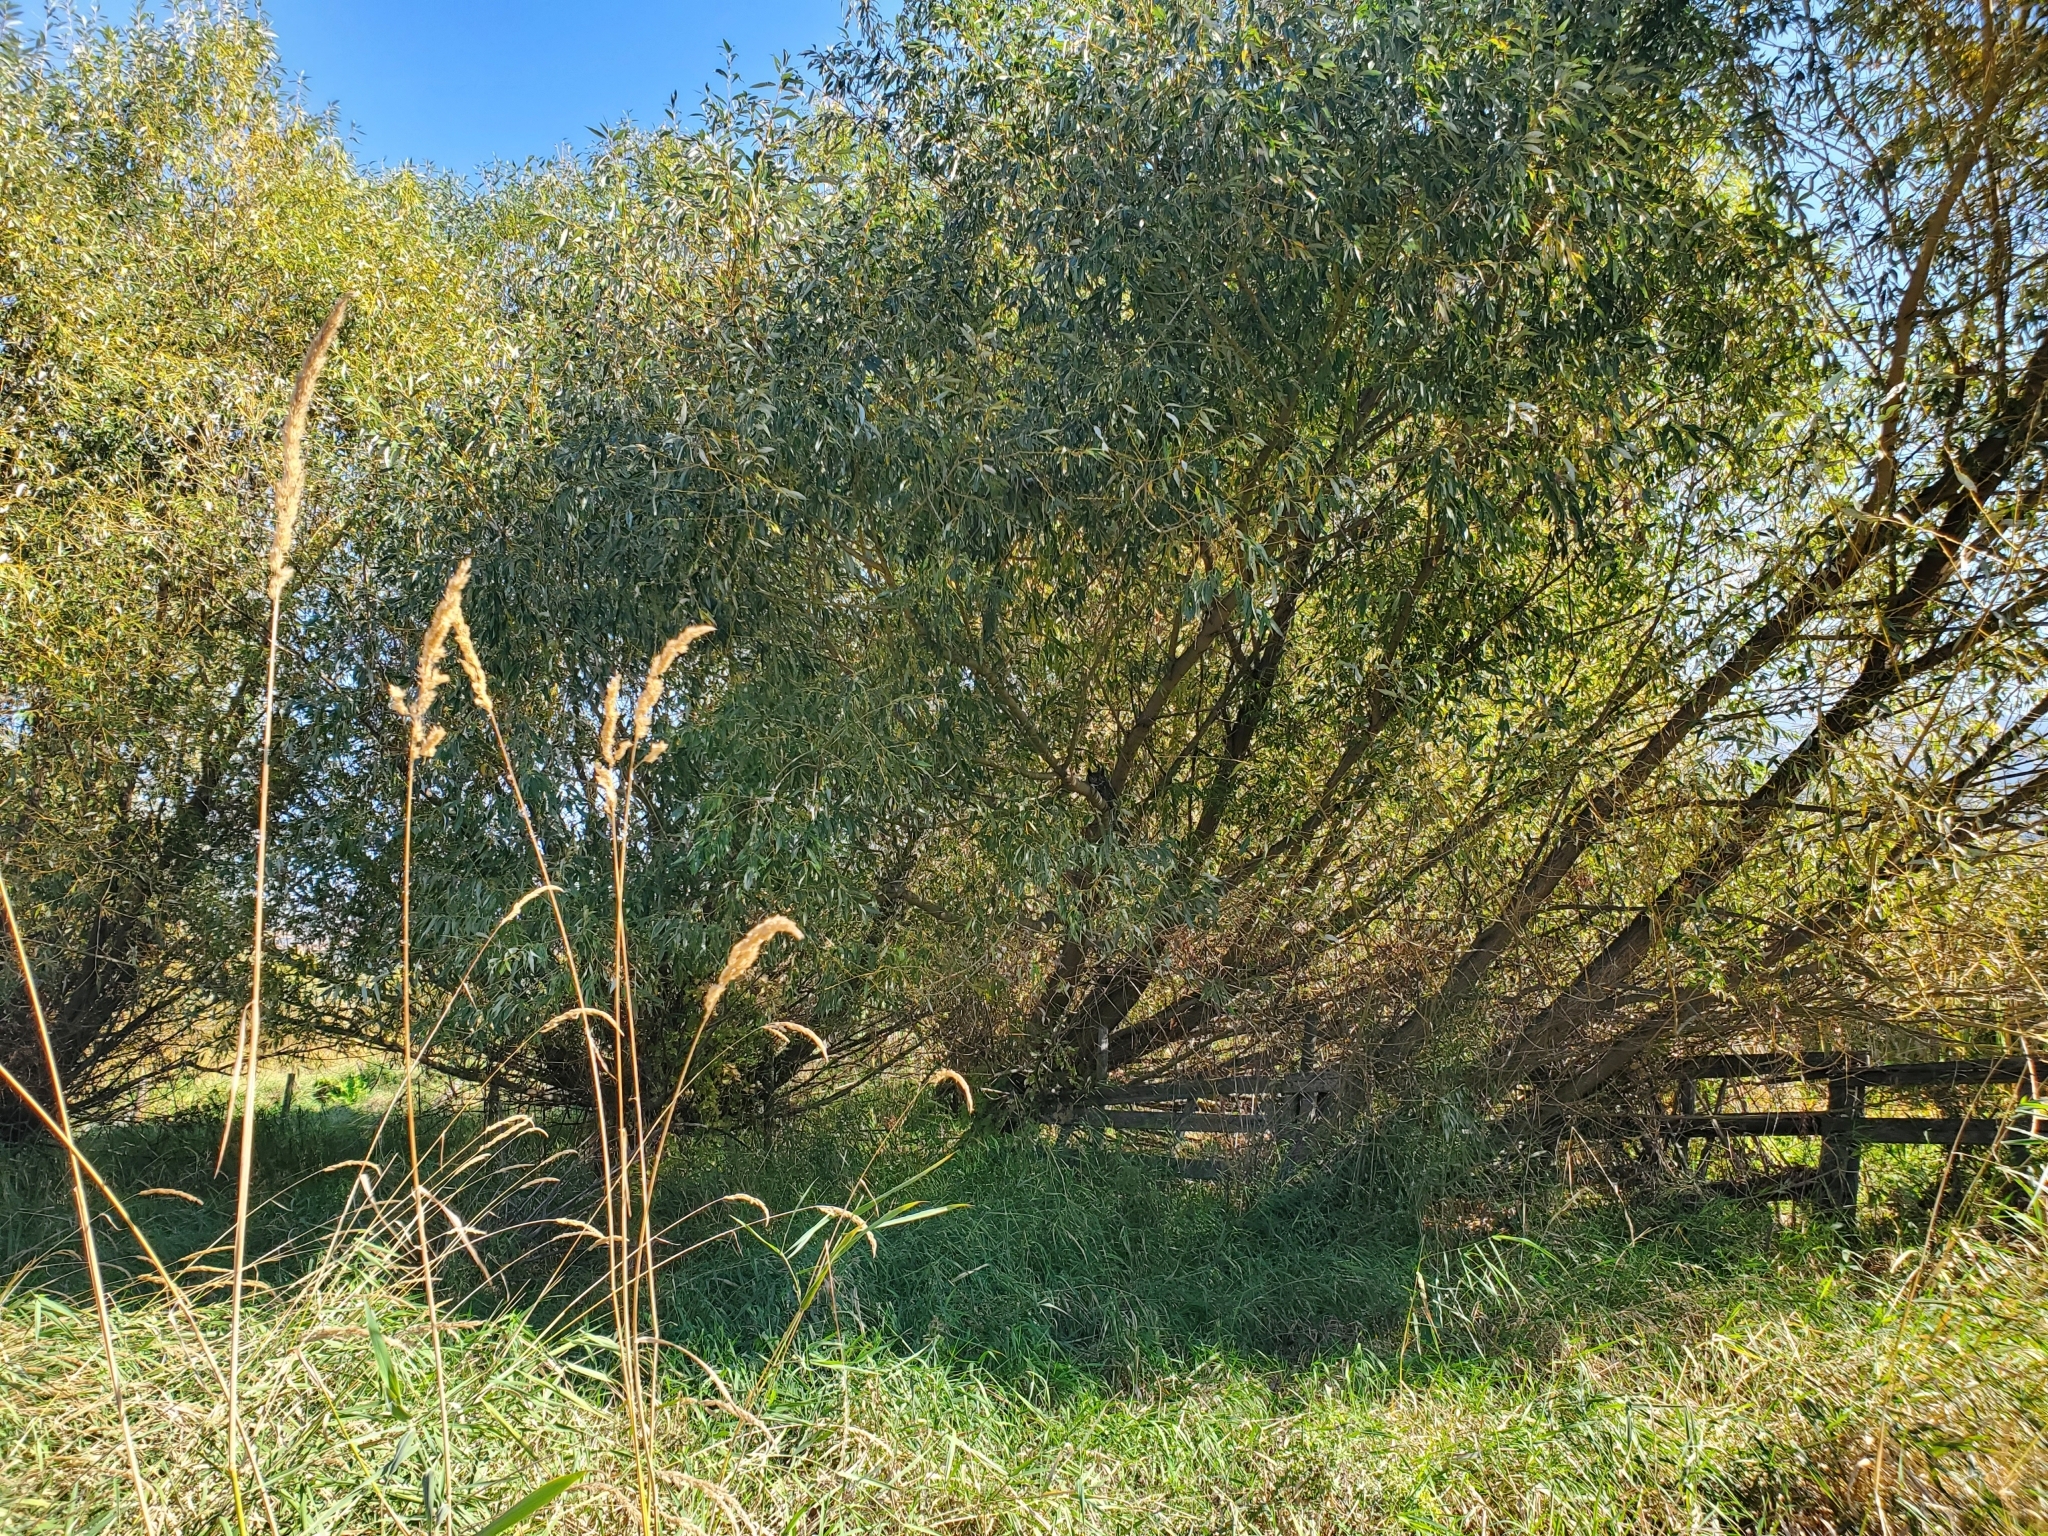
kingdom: Animalia
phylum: Chordata
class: Aves
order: Strigiformes
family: Strigidae
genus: Bubo
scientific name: Bubo virginianus
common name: Great horned owl
